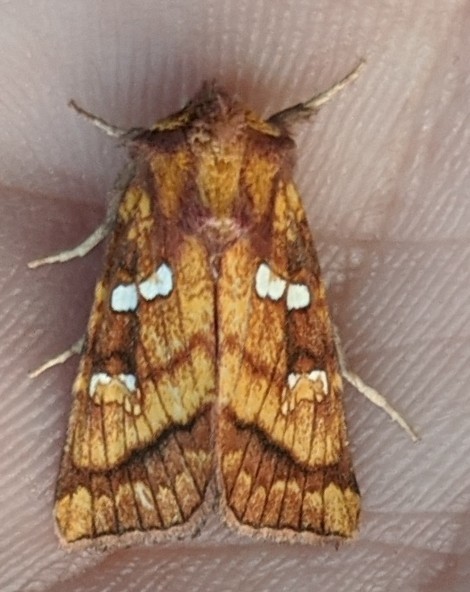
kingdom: Animalia
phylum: Arthropoda
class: Insecta
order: Lepidoptera
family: Noctuidae
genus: Papaipema
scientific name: Papaipema pterisii
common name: Bracken borer moth
